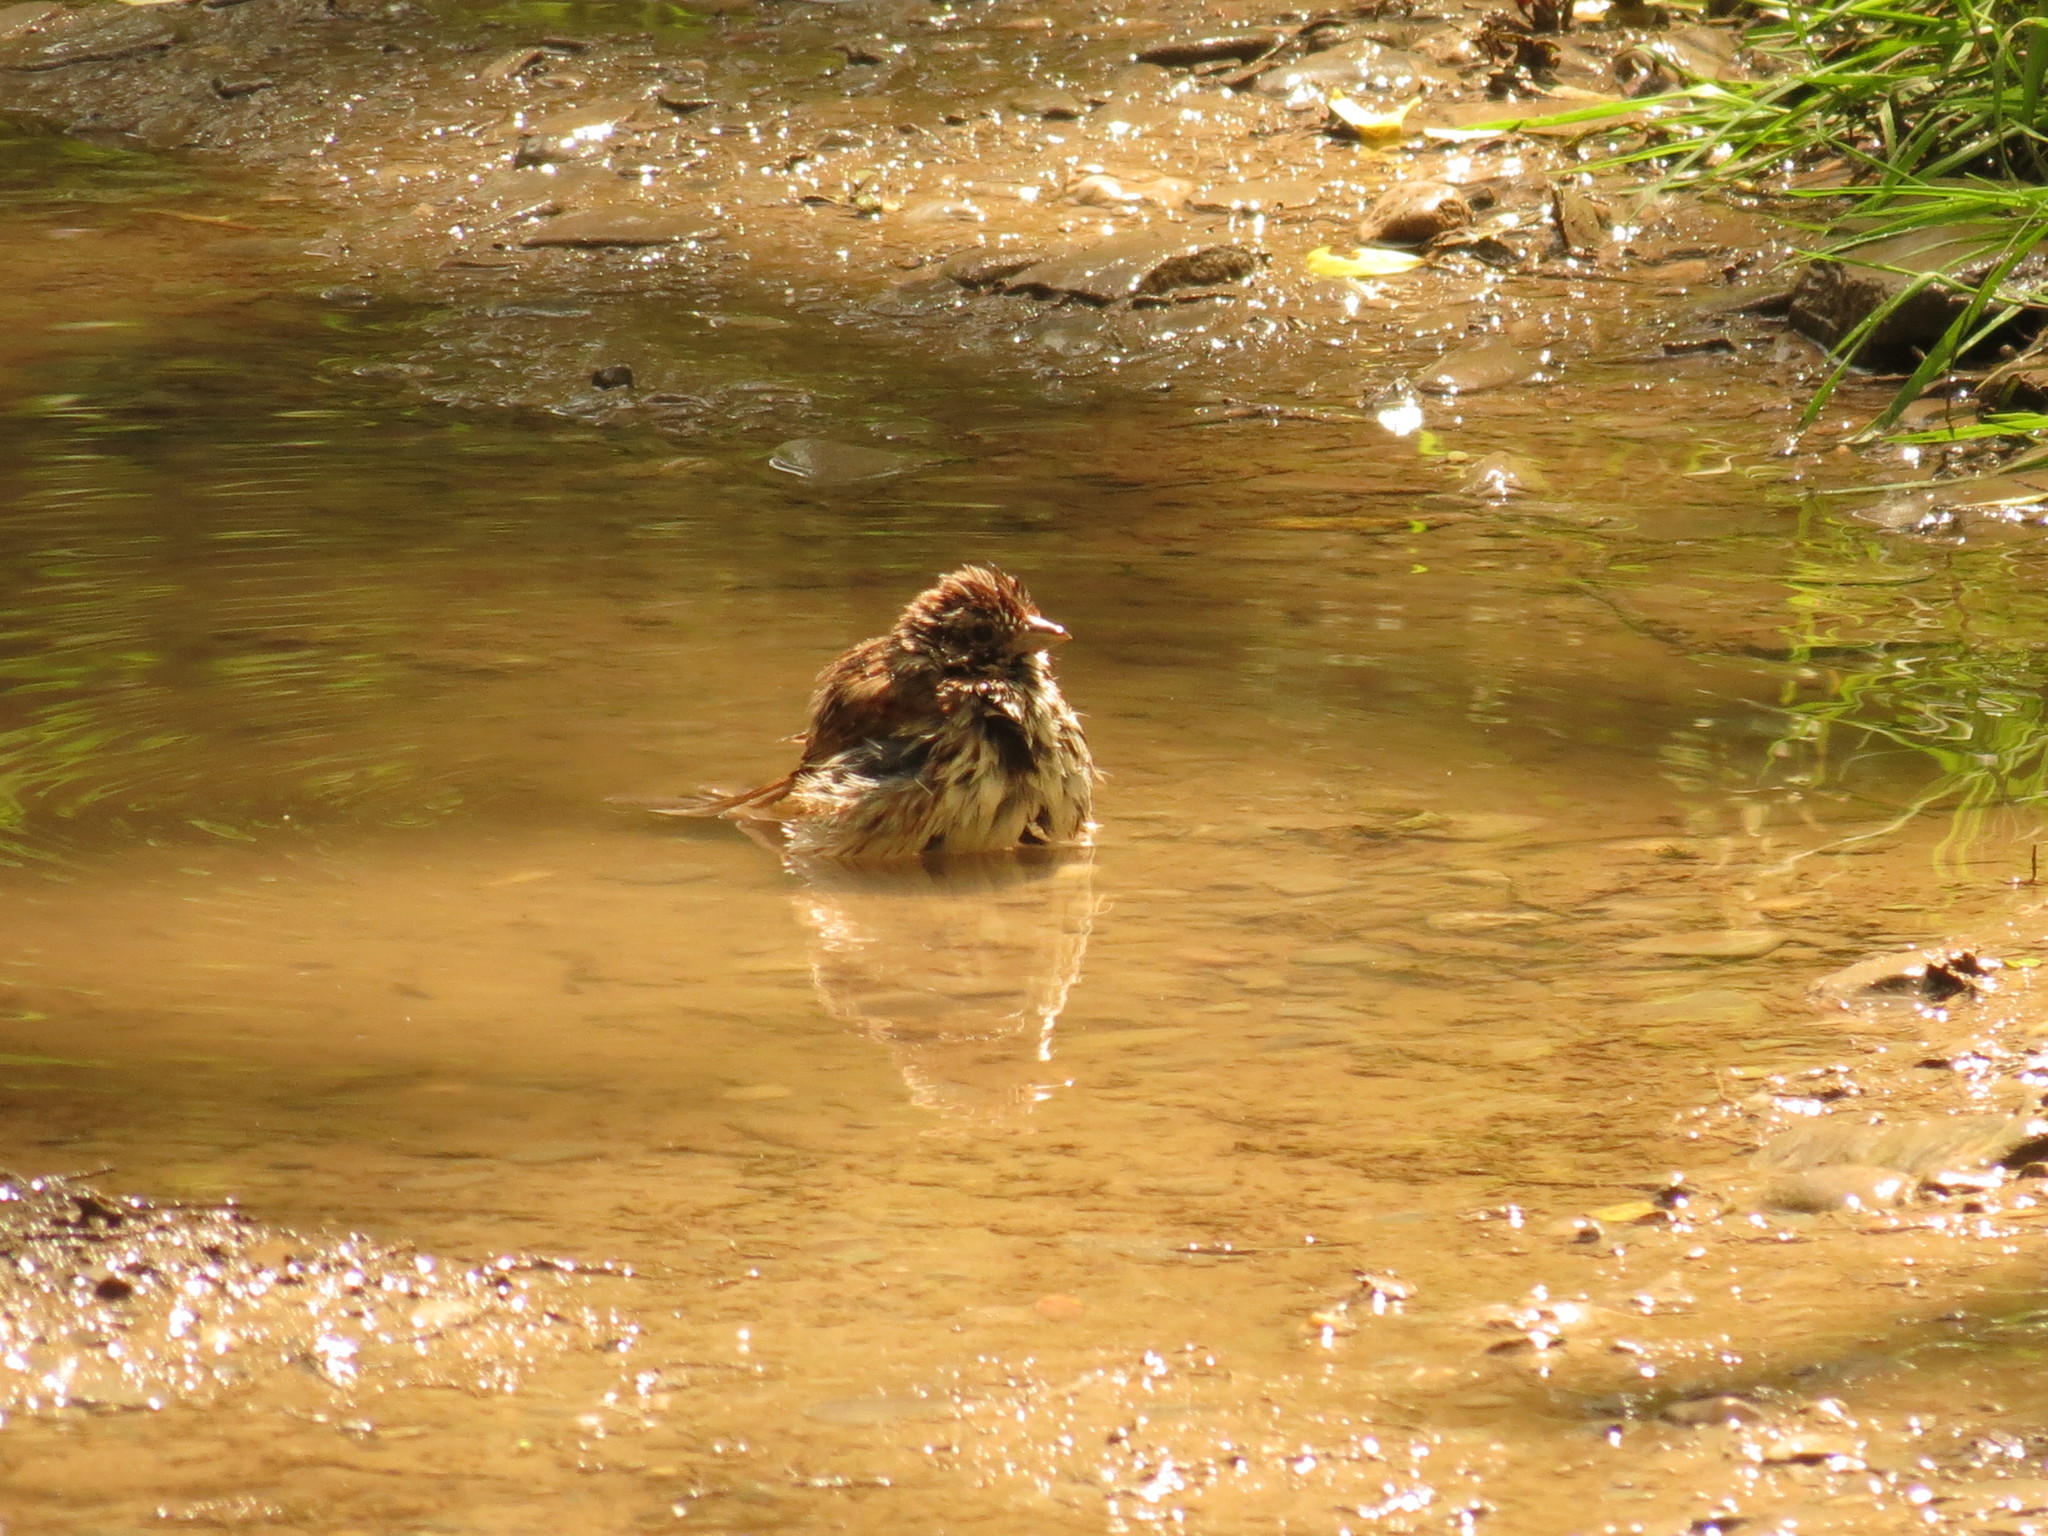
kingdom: Animalia
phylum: Chordata
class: Aves
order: Passeriformes
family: Passerellidae
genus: Melospiza
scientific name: Melospiza melodia
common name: Song sparrow
